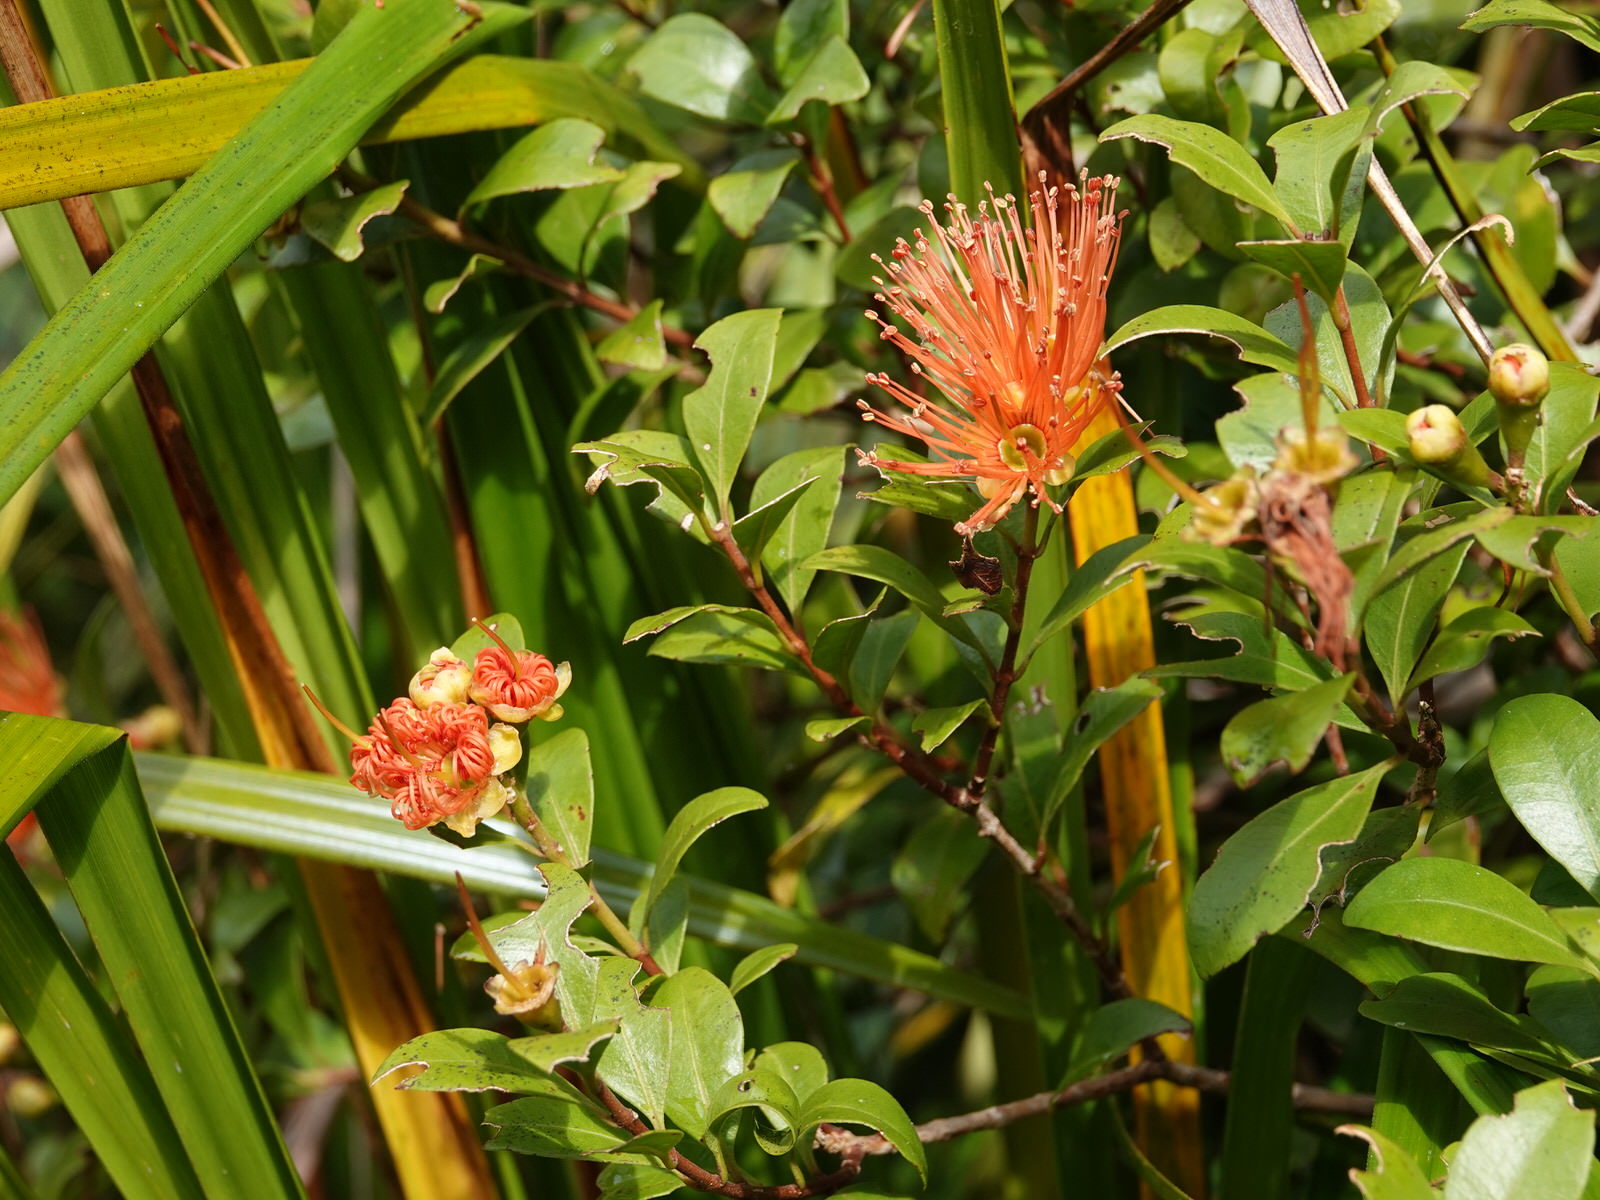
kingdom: Plantae
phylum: Tracheophyta
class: Magnoliopsida
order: Myrtales
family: Myrtaceae
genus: Metrosideros
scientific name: Metrosideros fulgens
